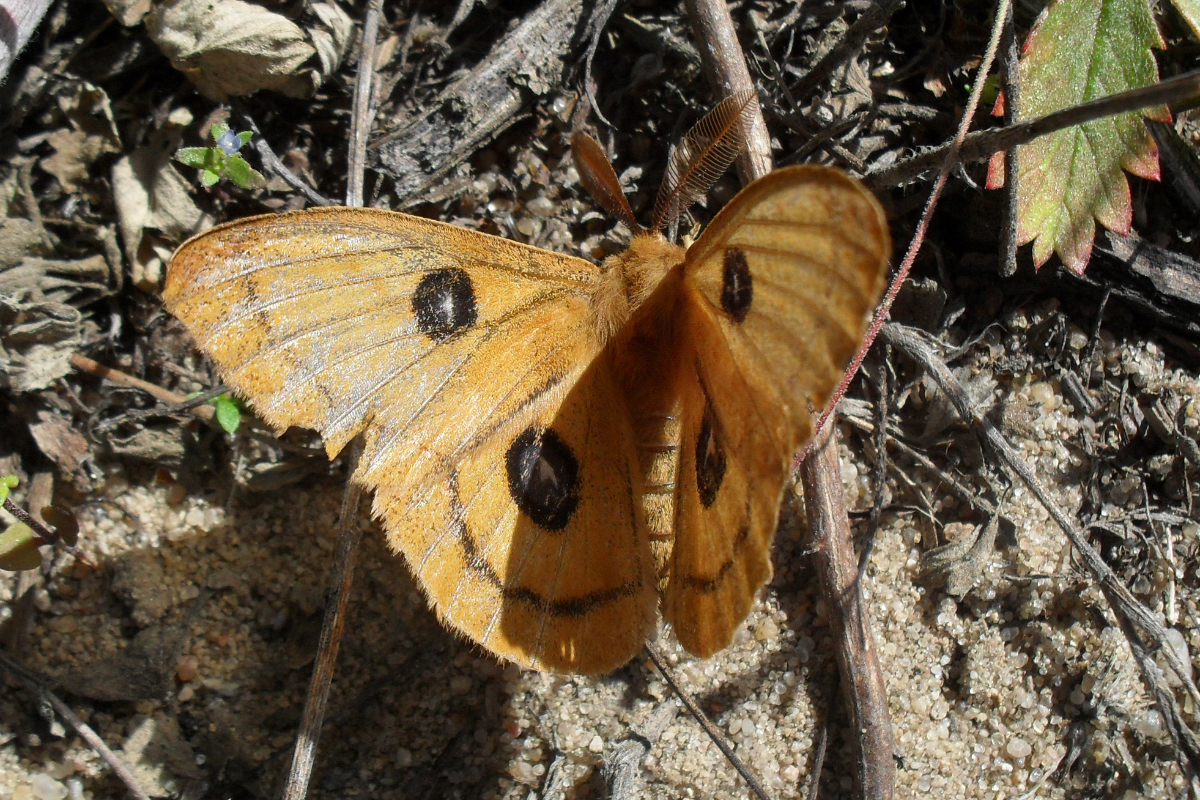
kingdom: Animalia
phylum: Arthropoda
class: Insecta
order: Lepidoptera
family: Saturniidae
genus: Aglia
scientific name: Aglia tau
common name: Tau emperor
